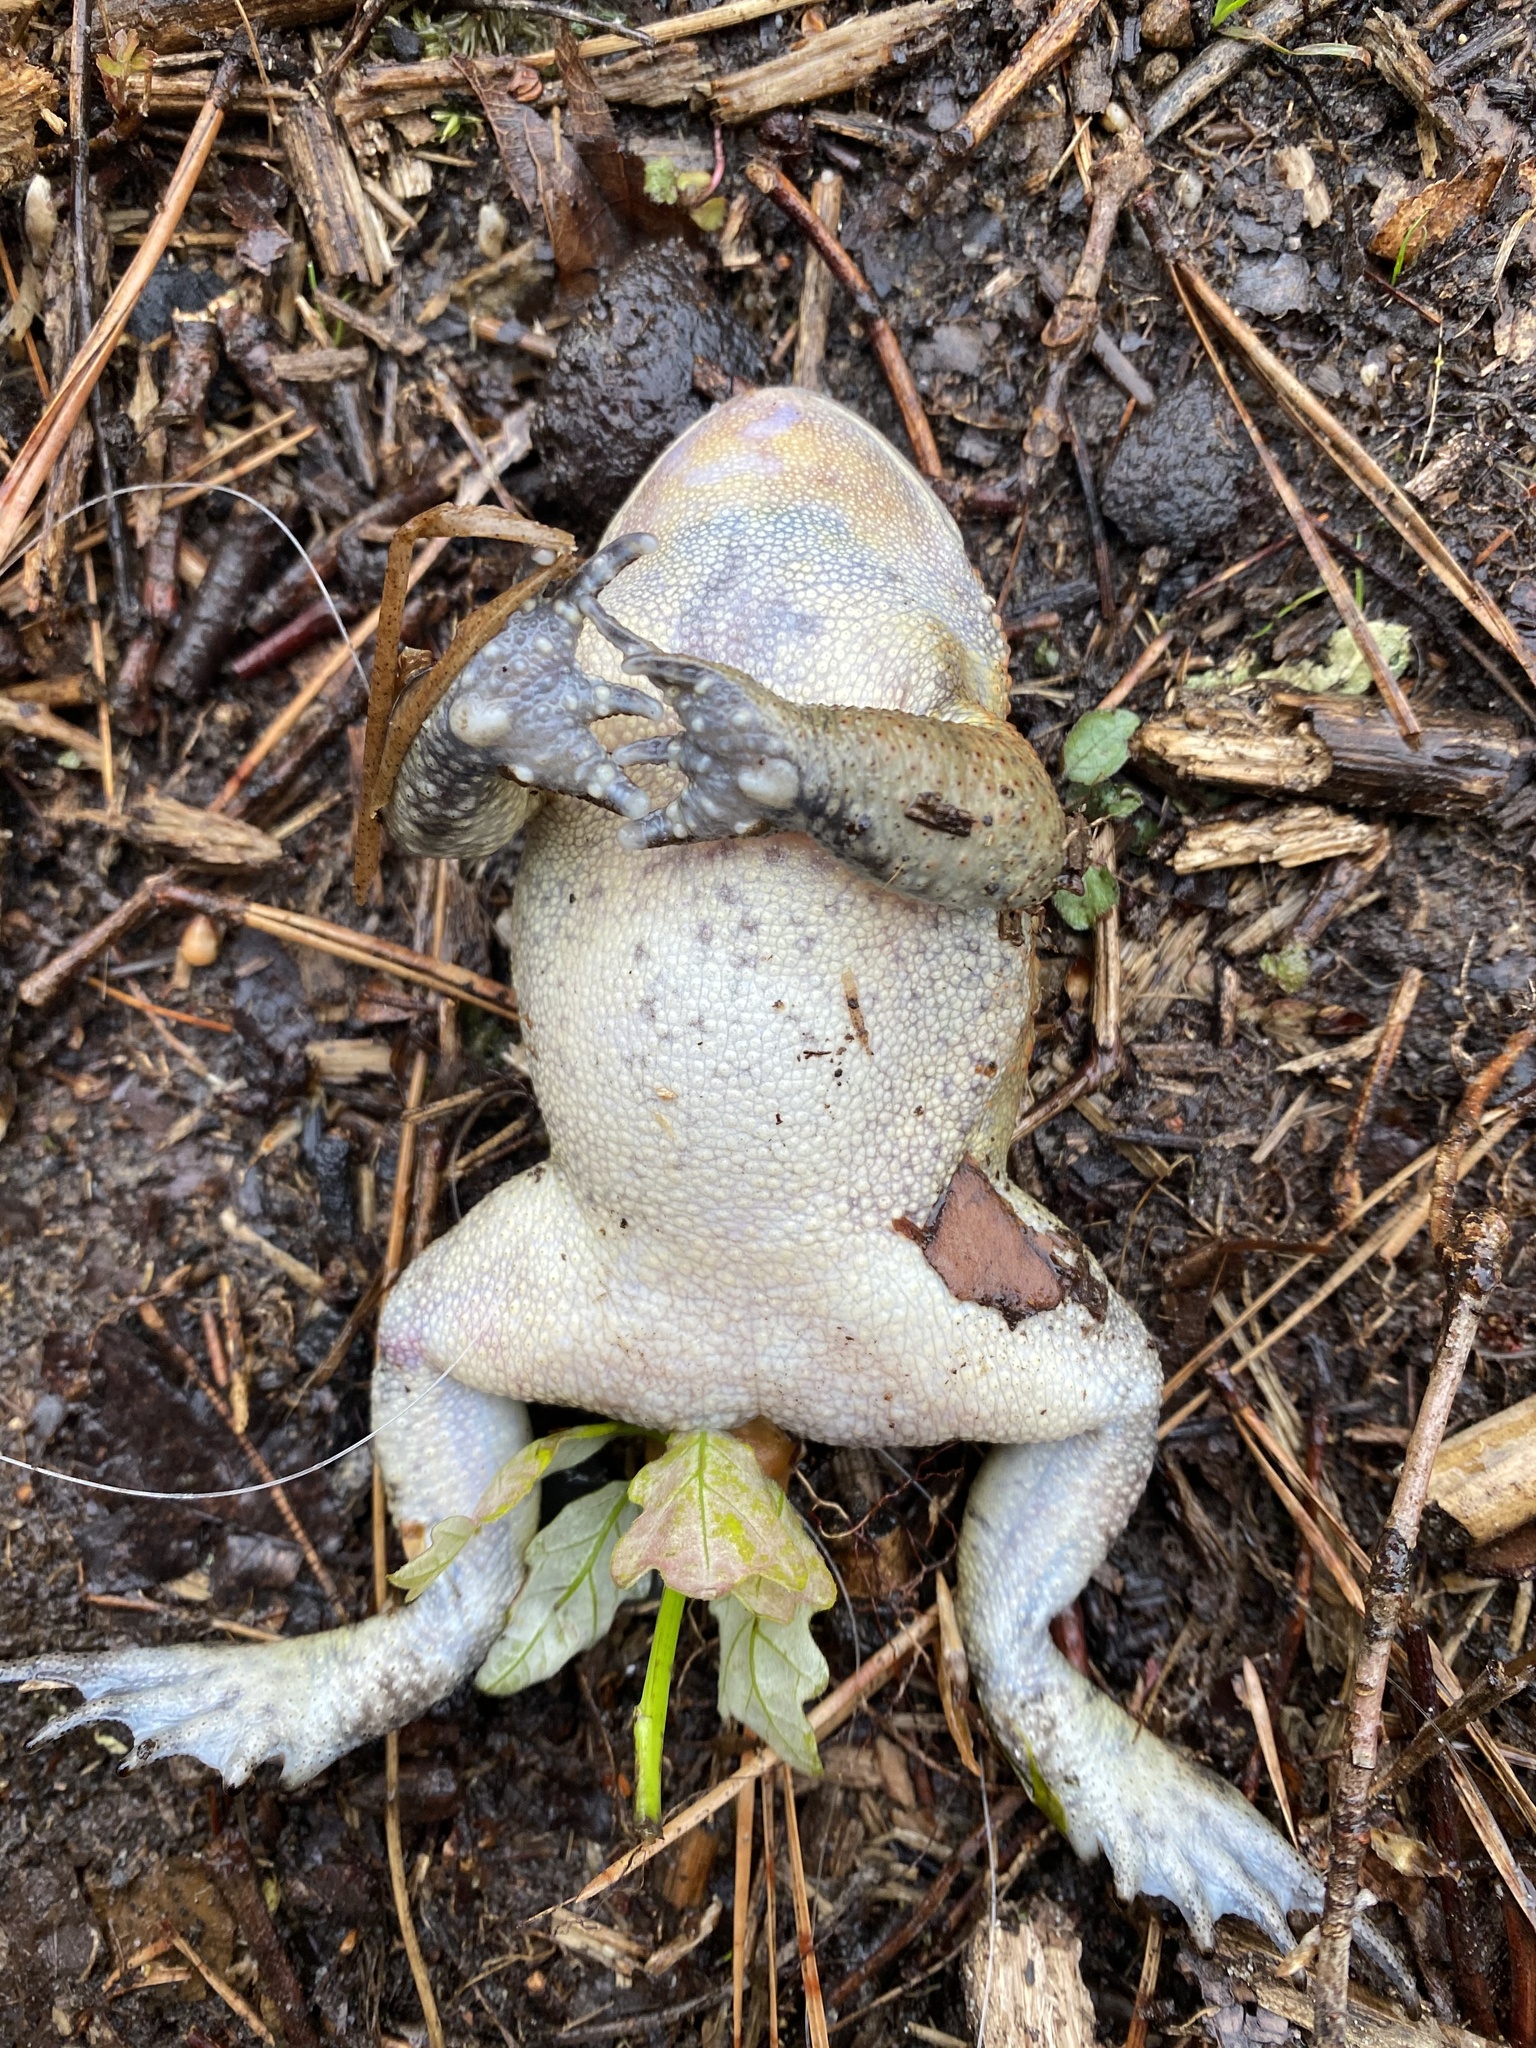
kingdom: Animalia
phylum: Chordata
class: Amphibia
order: Anura
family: Bufonidae
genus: Anaxyrus
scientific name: Anaxyrus americanus
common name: American toad
